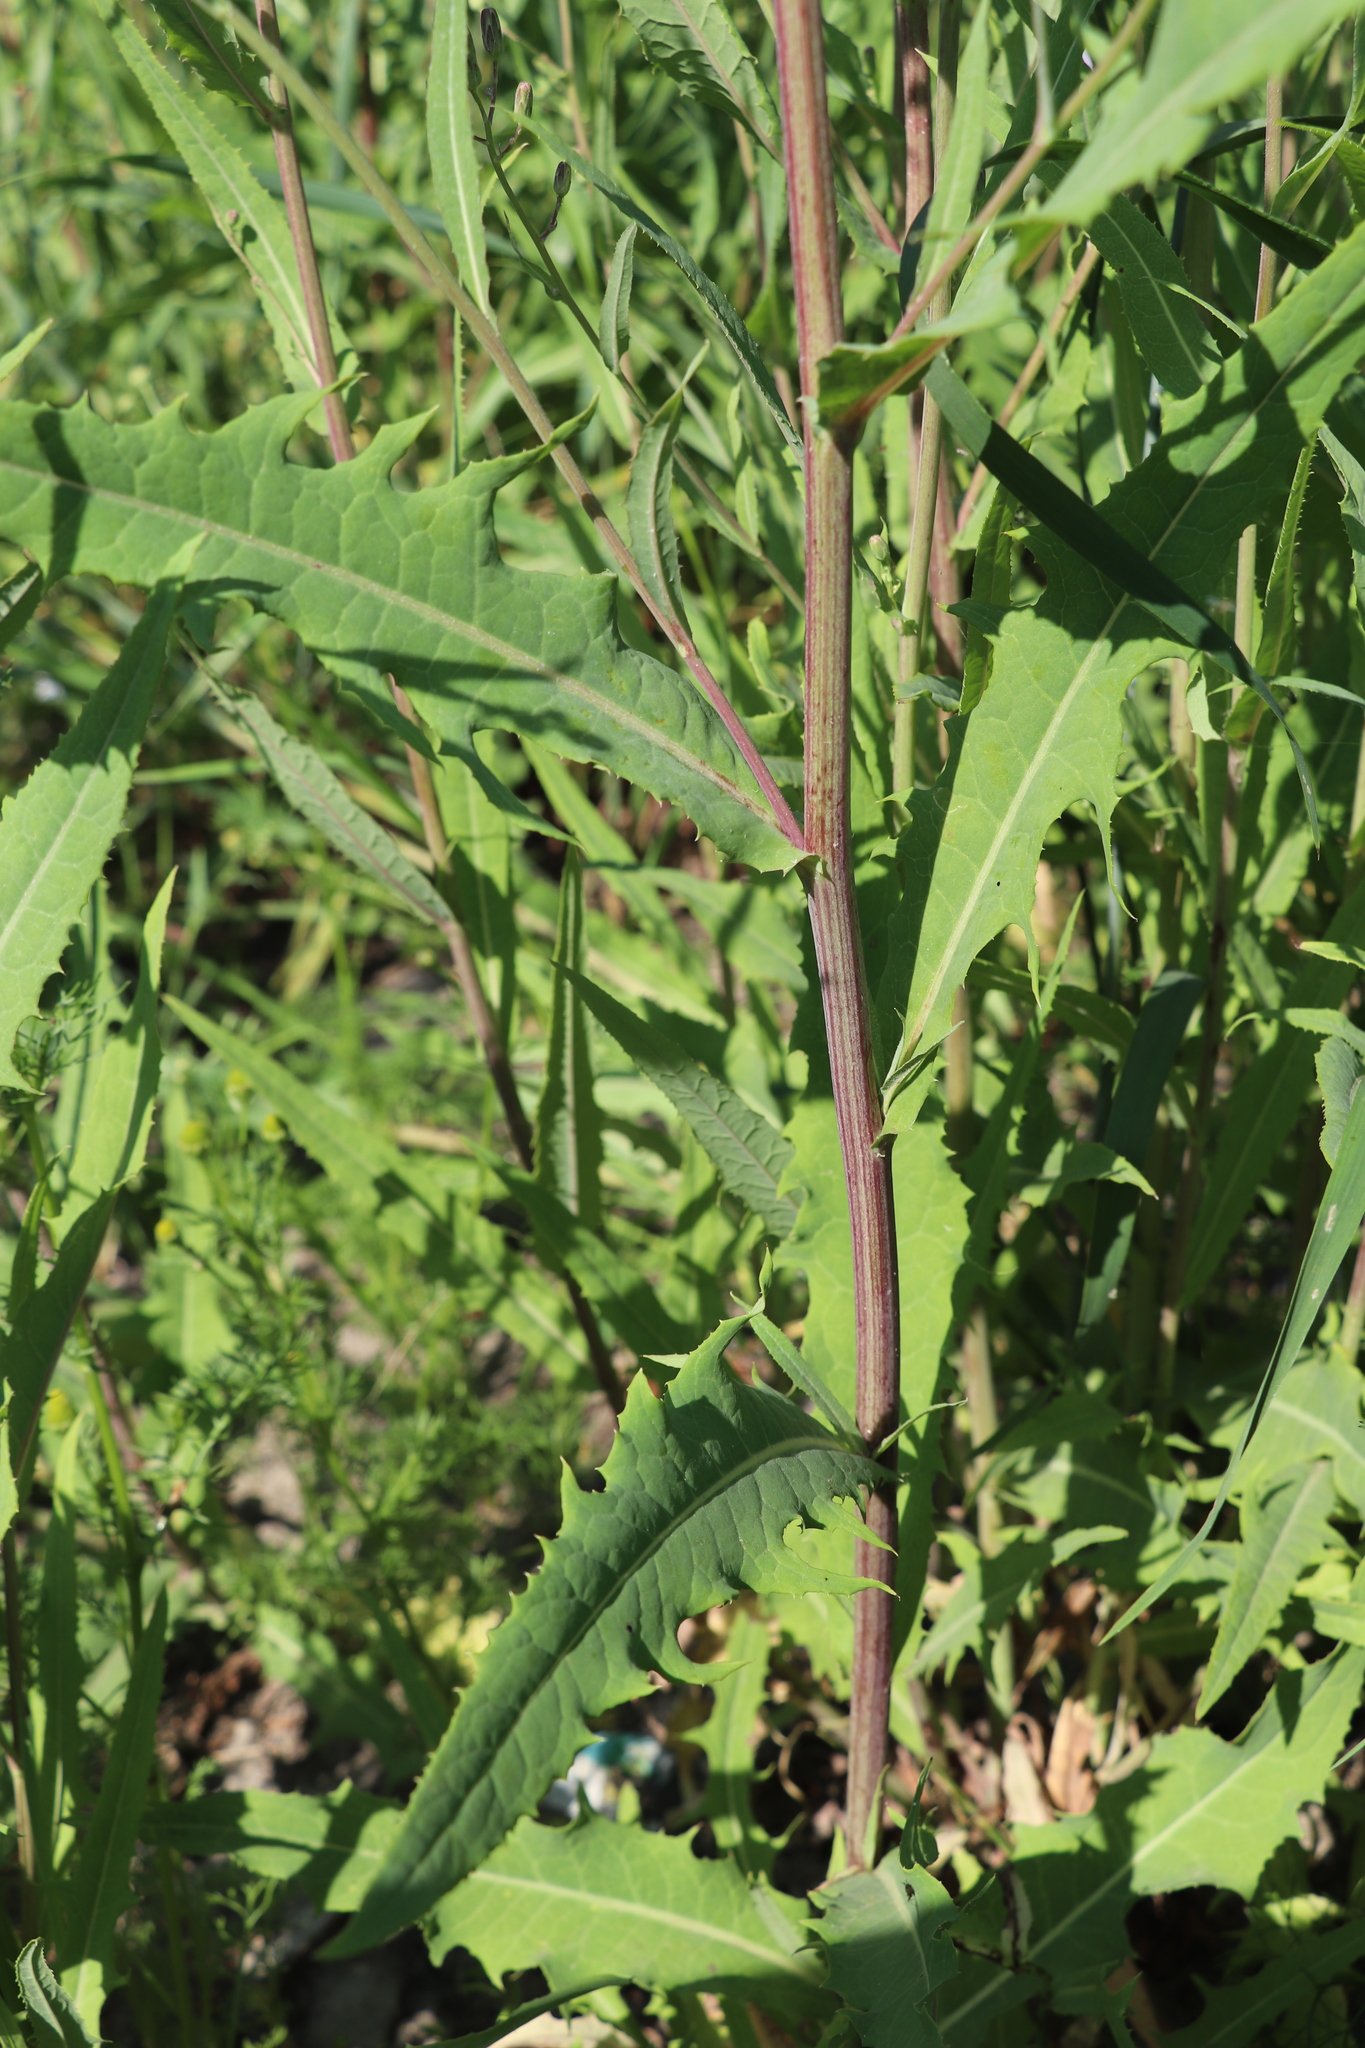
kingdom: Plantae
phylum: Tracheophyta
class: Magnoliopsida
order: Asterales
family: Asteraceae
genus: Lactuca
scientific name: Lactuca tatarica
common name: Blue lettuce
